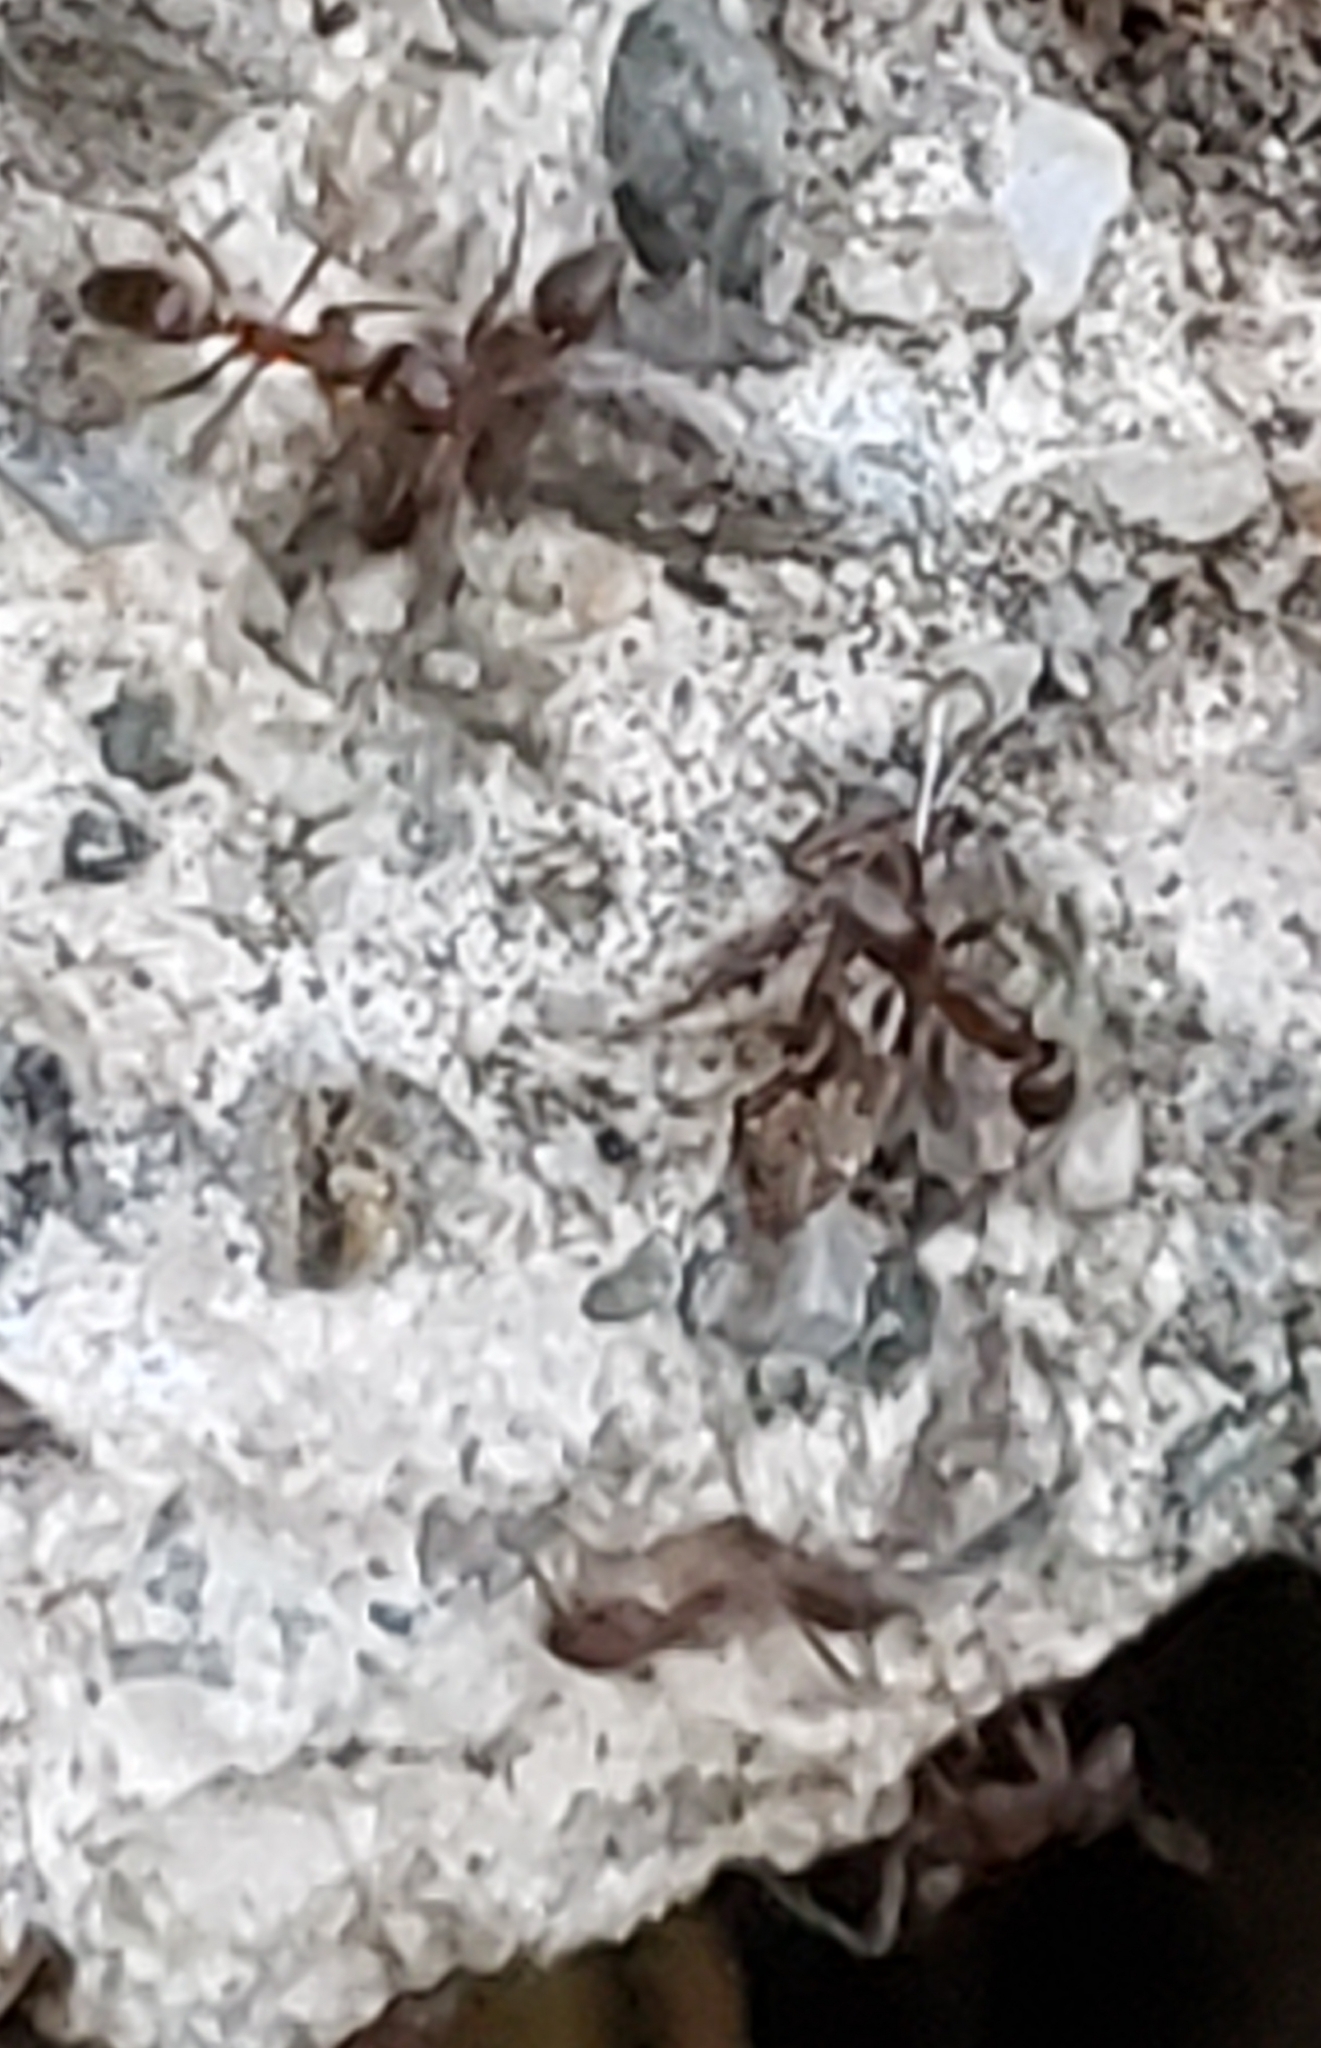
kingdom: Animalia
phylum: Arthropoda
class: Insecta
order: Hymenoptera
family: Formicidae
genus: Linepithema
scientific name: Linepithema humile
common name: Argentine ant
